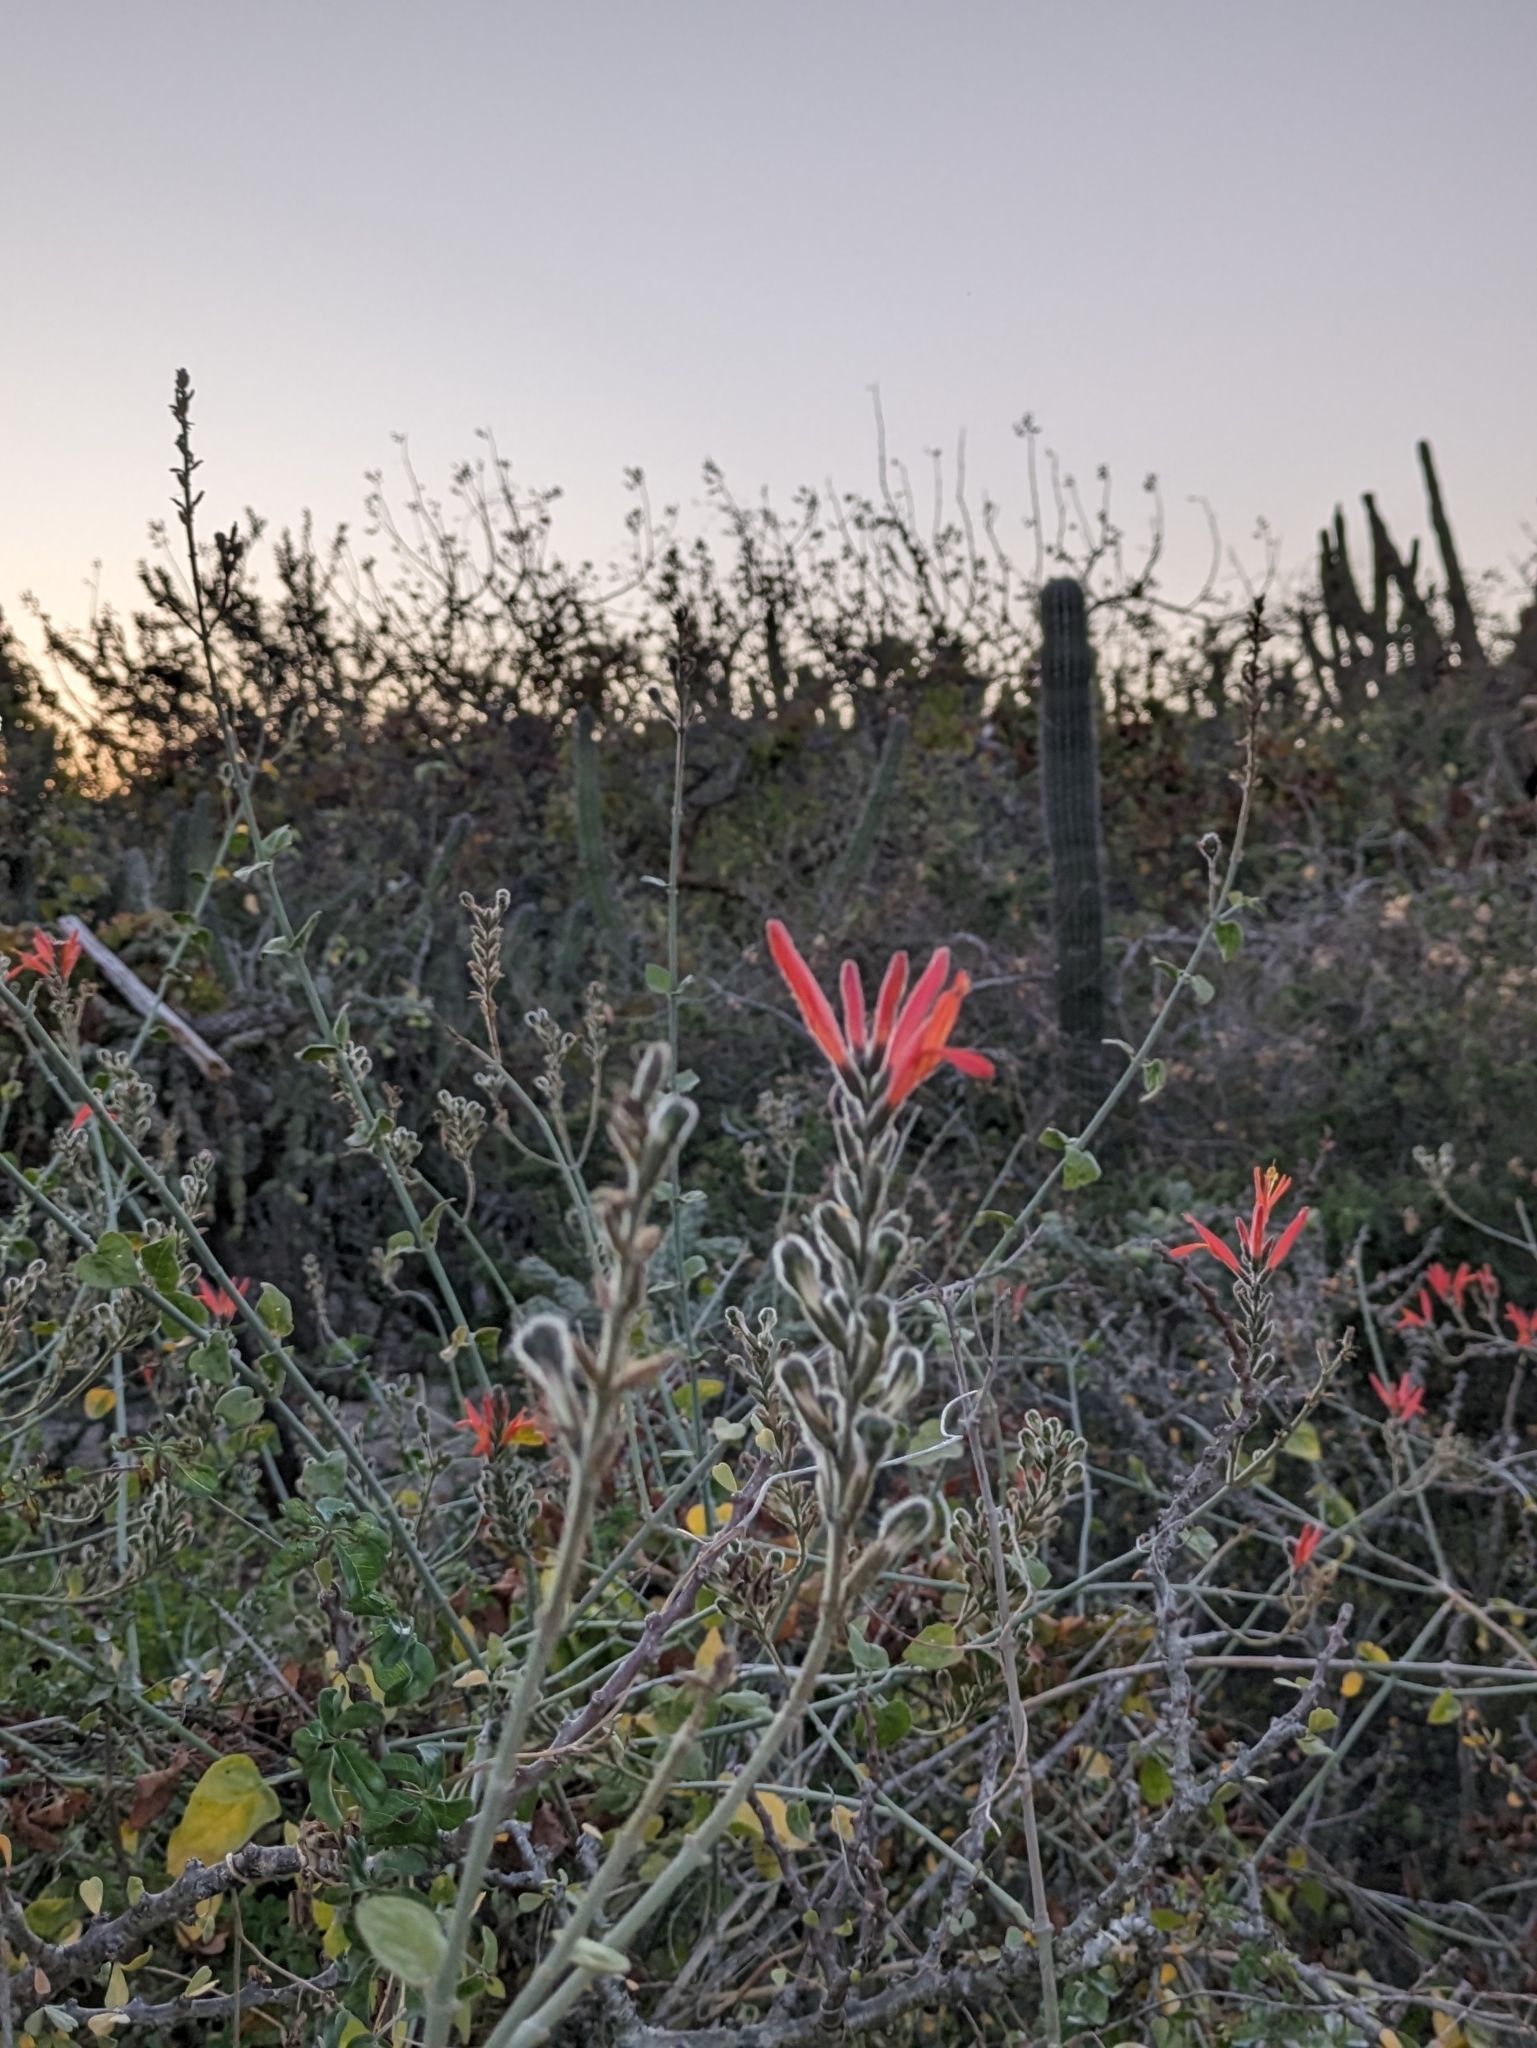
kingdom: Plantae
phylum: Tracheophyta
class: Magnoliopsida
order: Lamiales
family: Acanthaceae
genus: Justicia
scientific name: Justicia californica
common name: Chuparosa-honeysuckle
